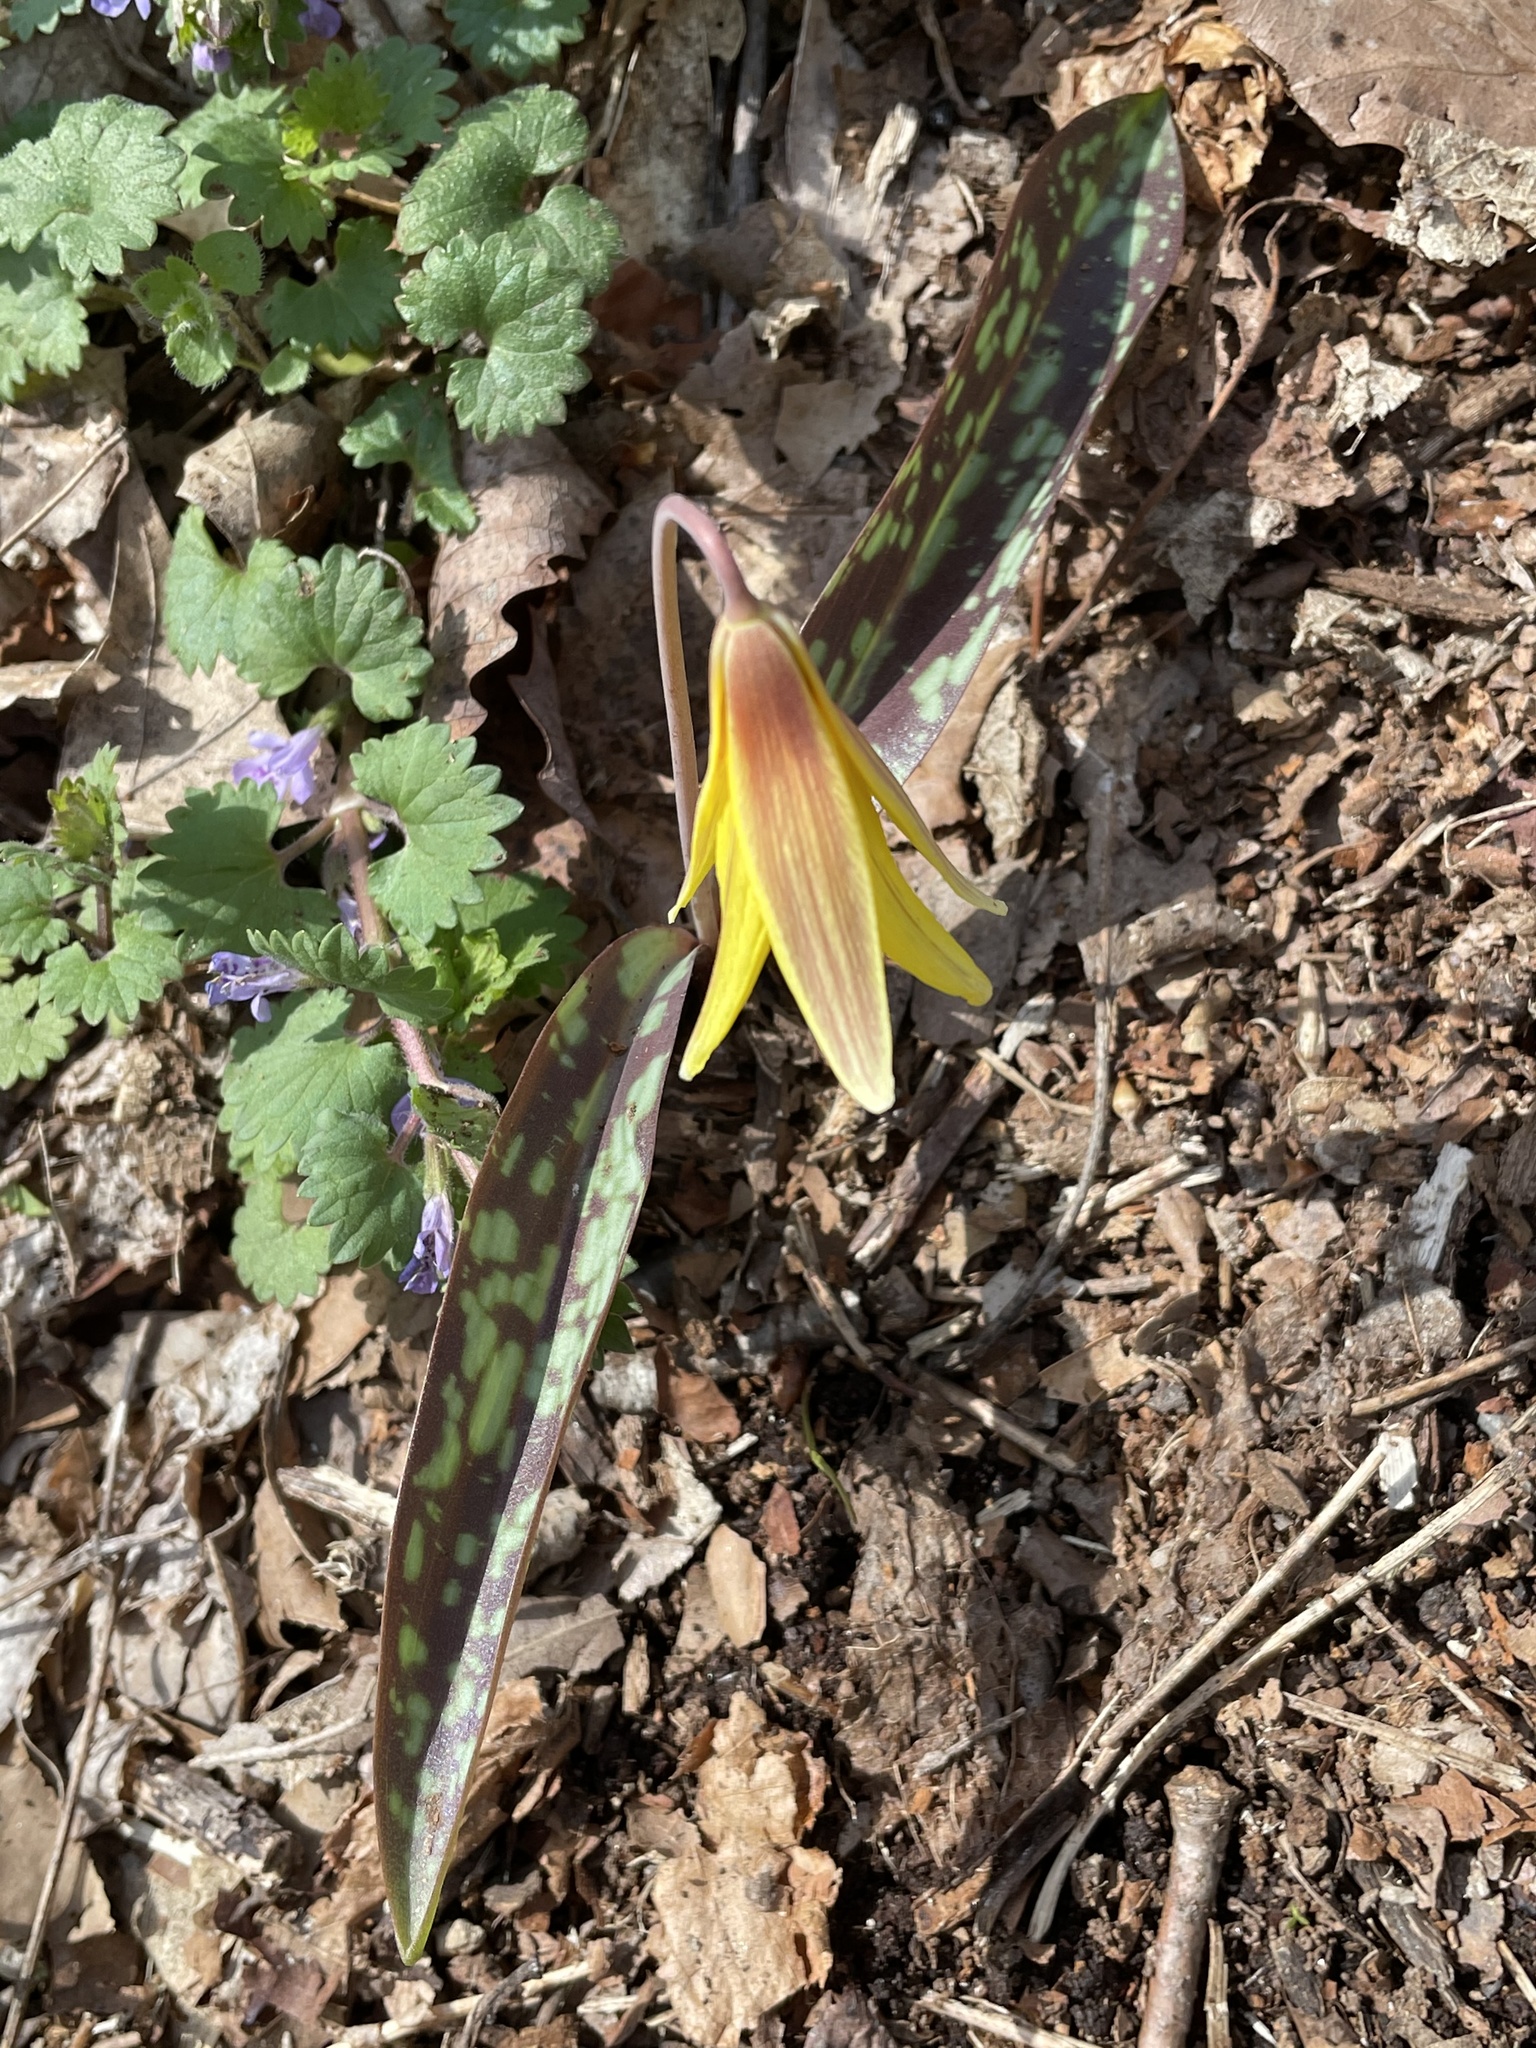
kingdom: Plantae
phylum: Tracheophyta
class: Liliopsida
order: Liliales
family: Liliaceae
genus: Erythronium
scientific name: Erythronium americanum
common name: Yellow adder's-tongue
